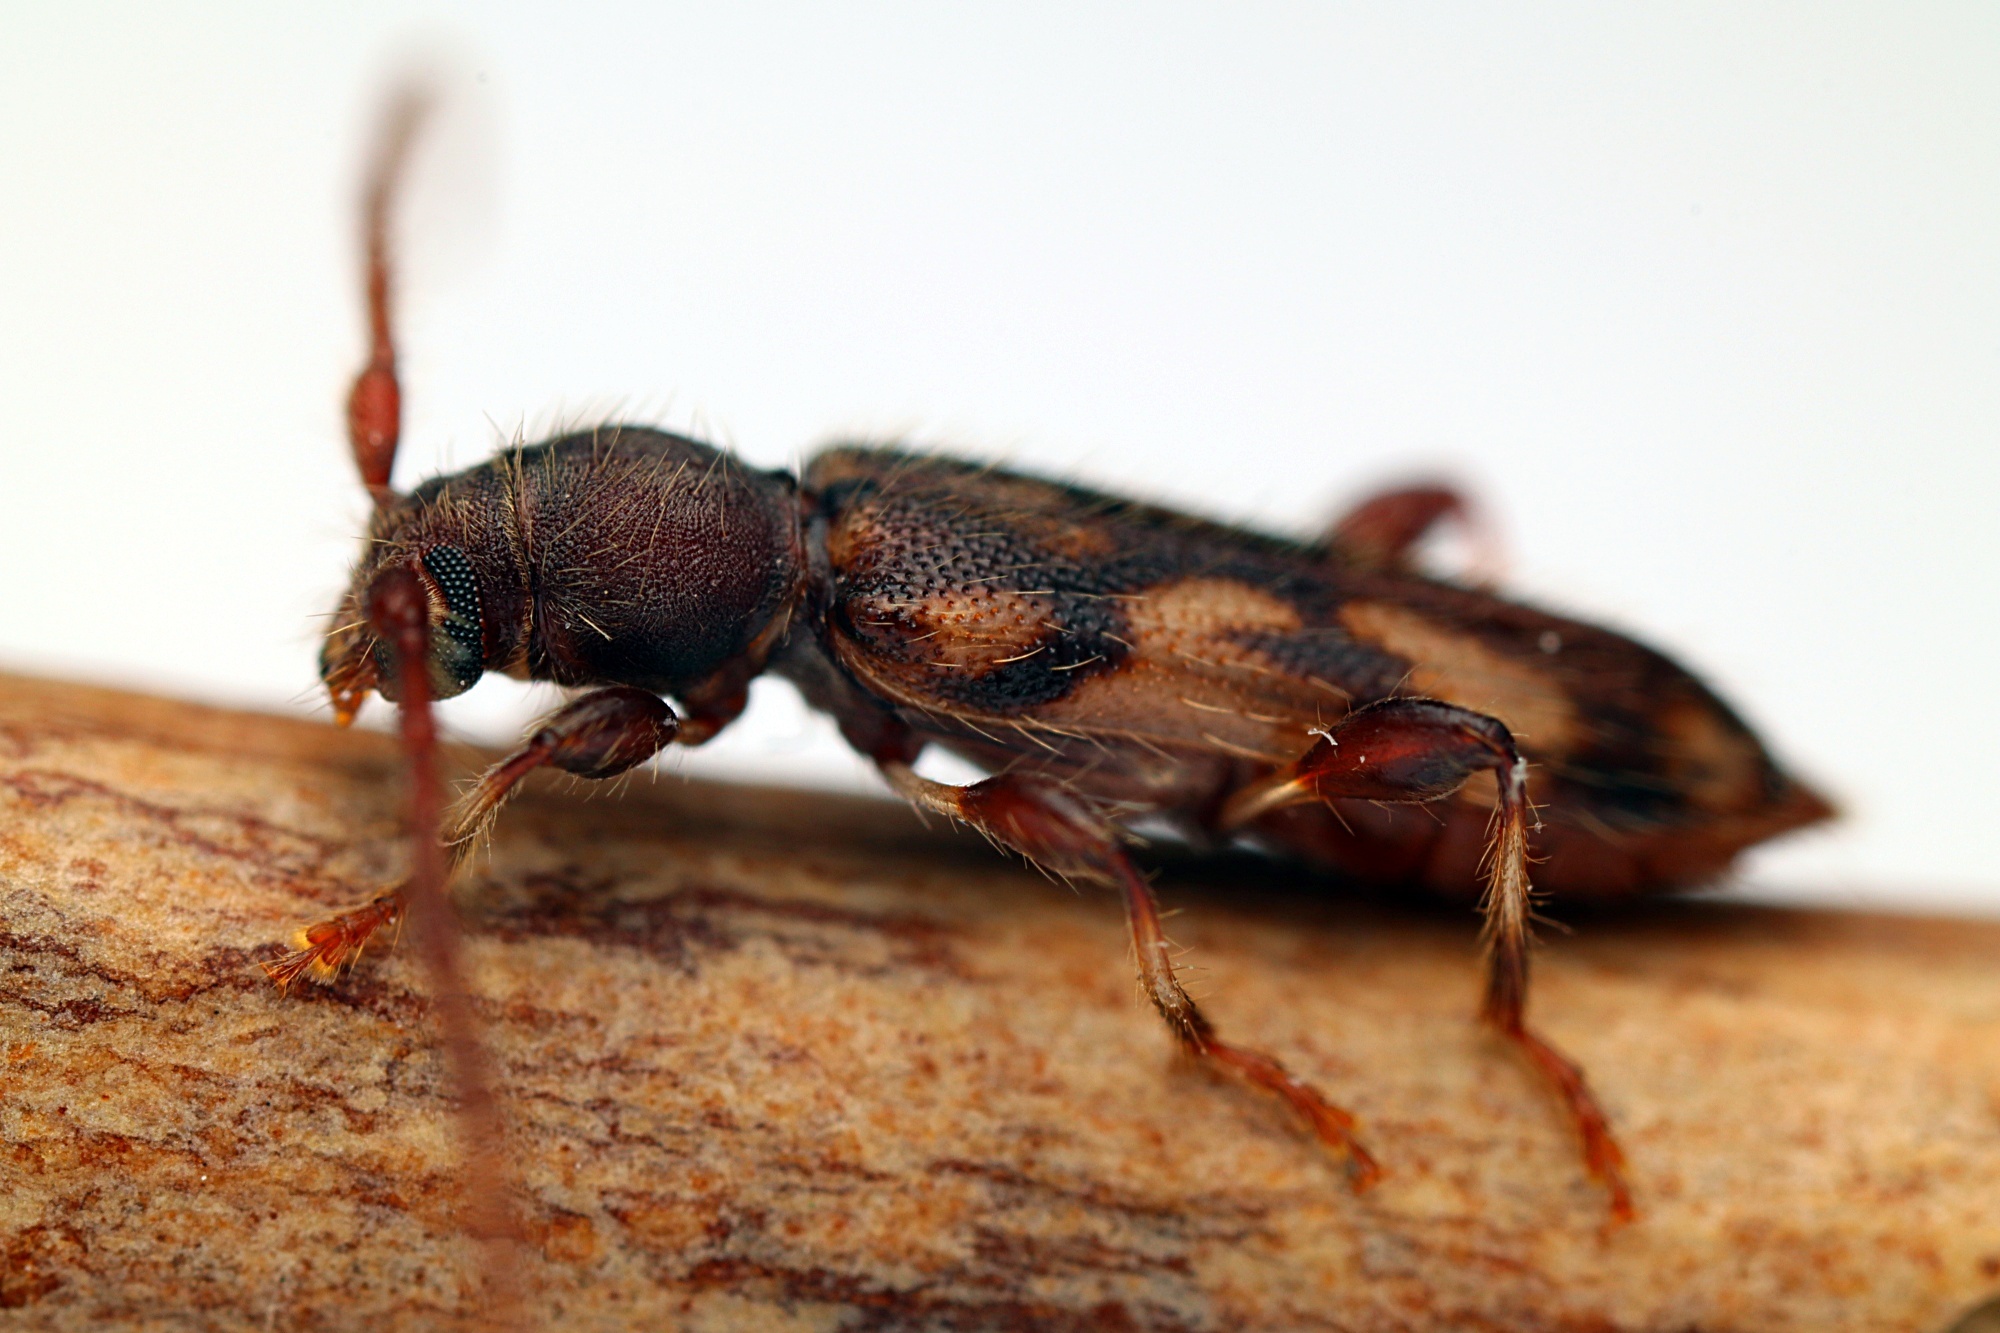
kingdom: Animalia
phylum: Arthropoda
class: Insecta
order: Coleoptera
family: Cerambycidae
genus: Bethelium
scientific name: Bethelium signiferum
